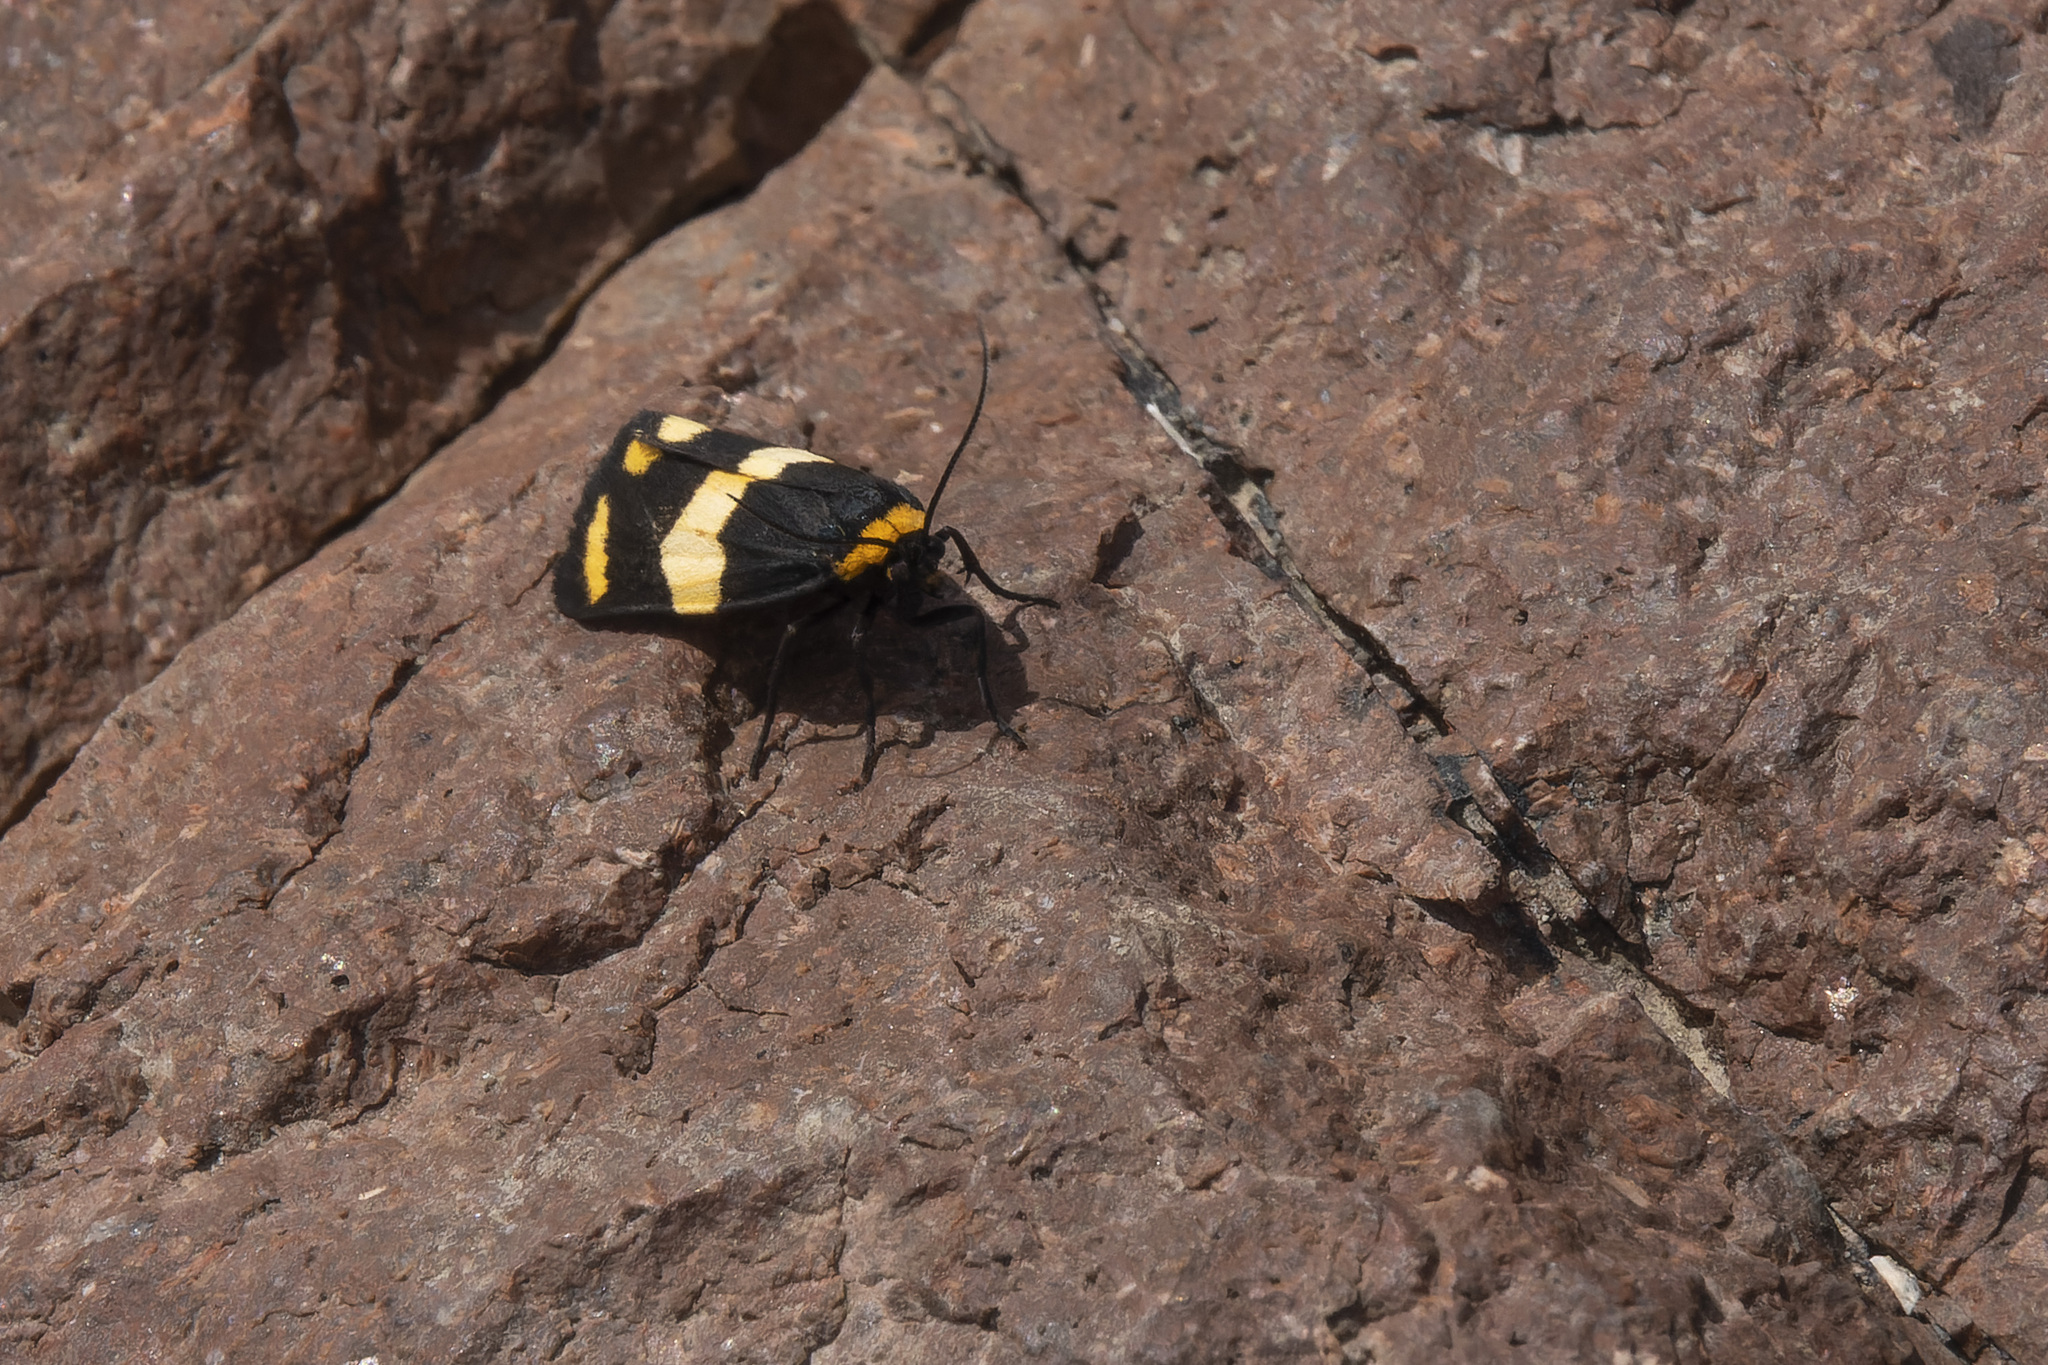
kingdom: Animalia
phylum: Arthropoda
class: Insecta
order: Lepidoptera
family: Erebidae
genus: Eudesmia
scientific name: Eudesmia
